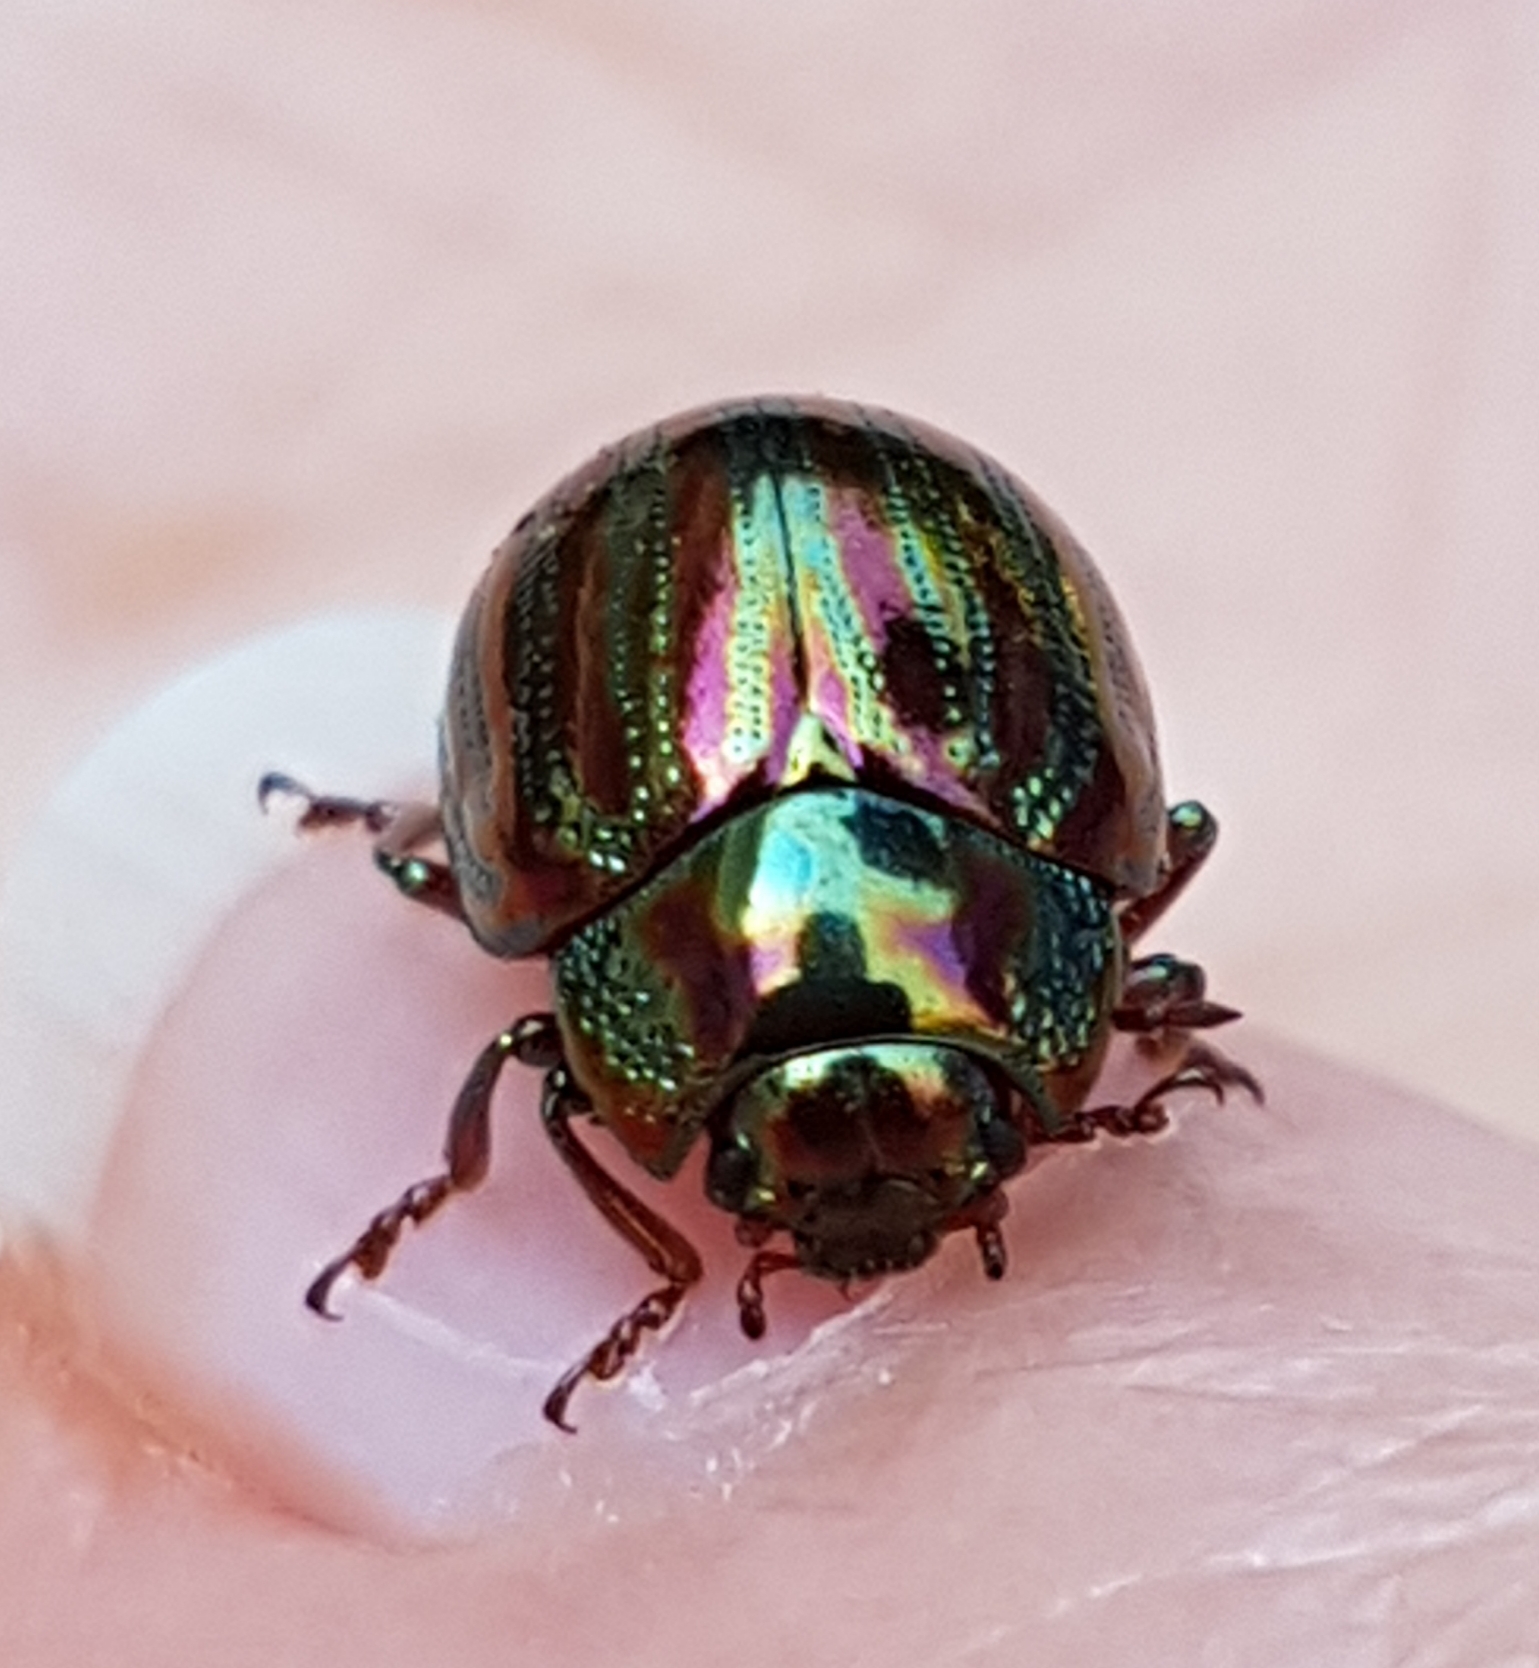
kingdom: Animalia
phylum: Arthropoda
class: Insecta
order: Coleoptera
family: Chrysomelidae
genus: Chrysolina
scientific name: Chrysolina americana
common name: Rosemary beetle
